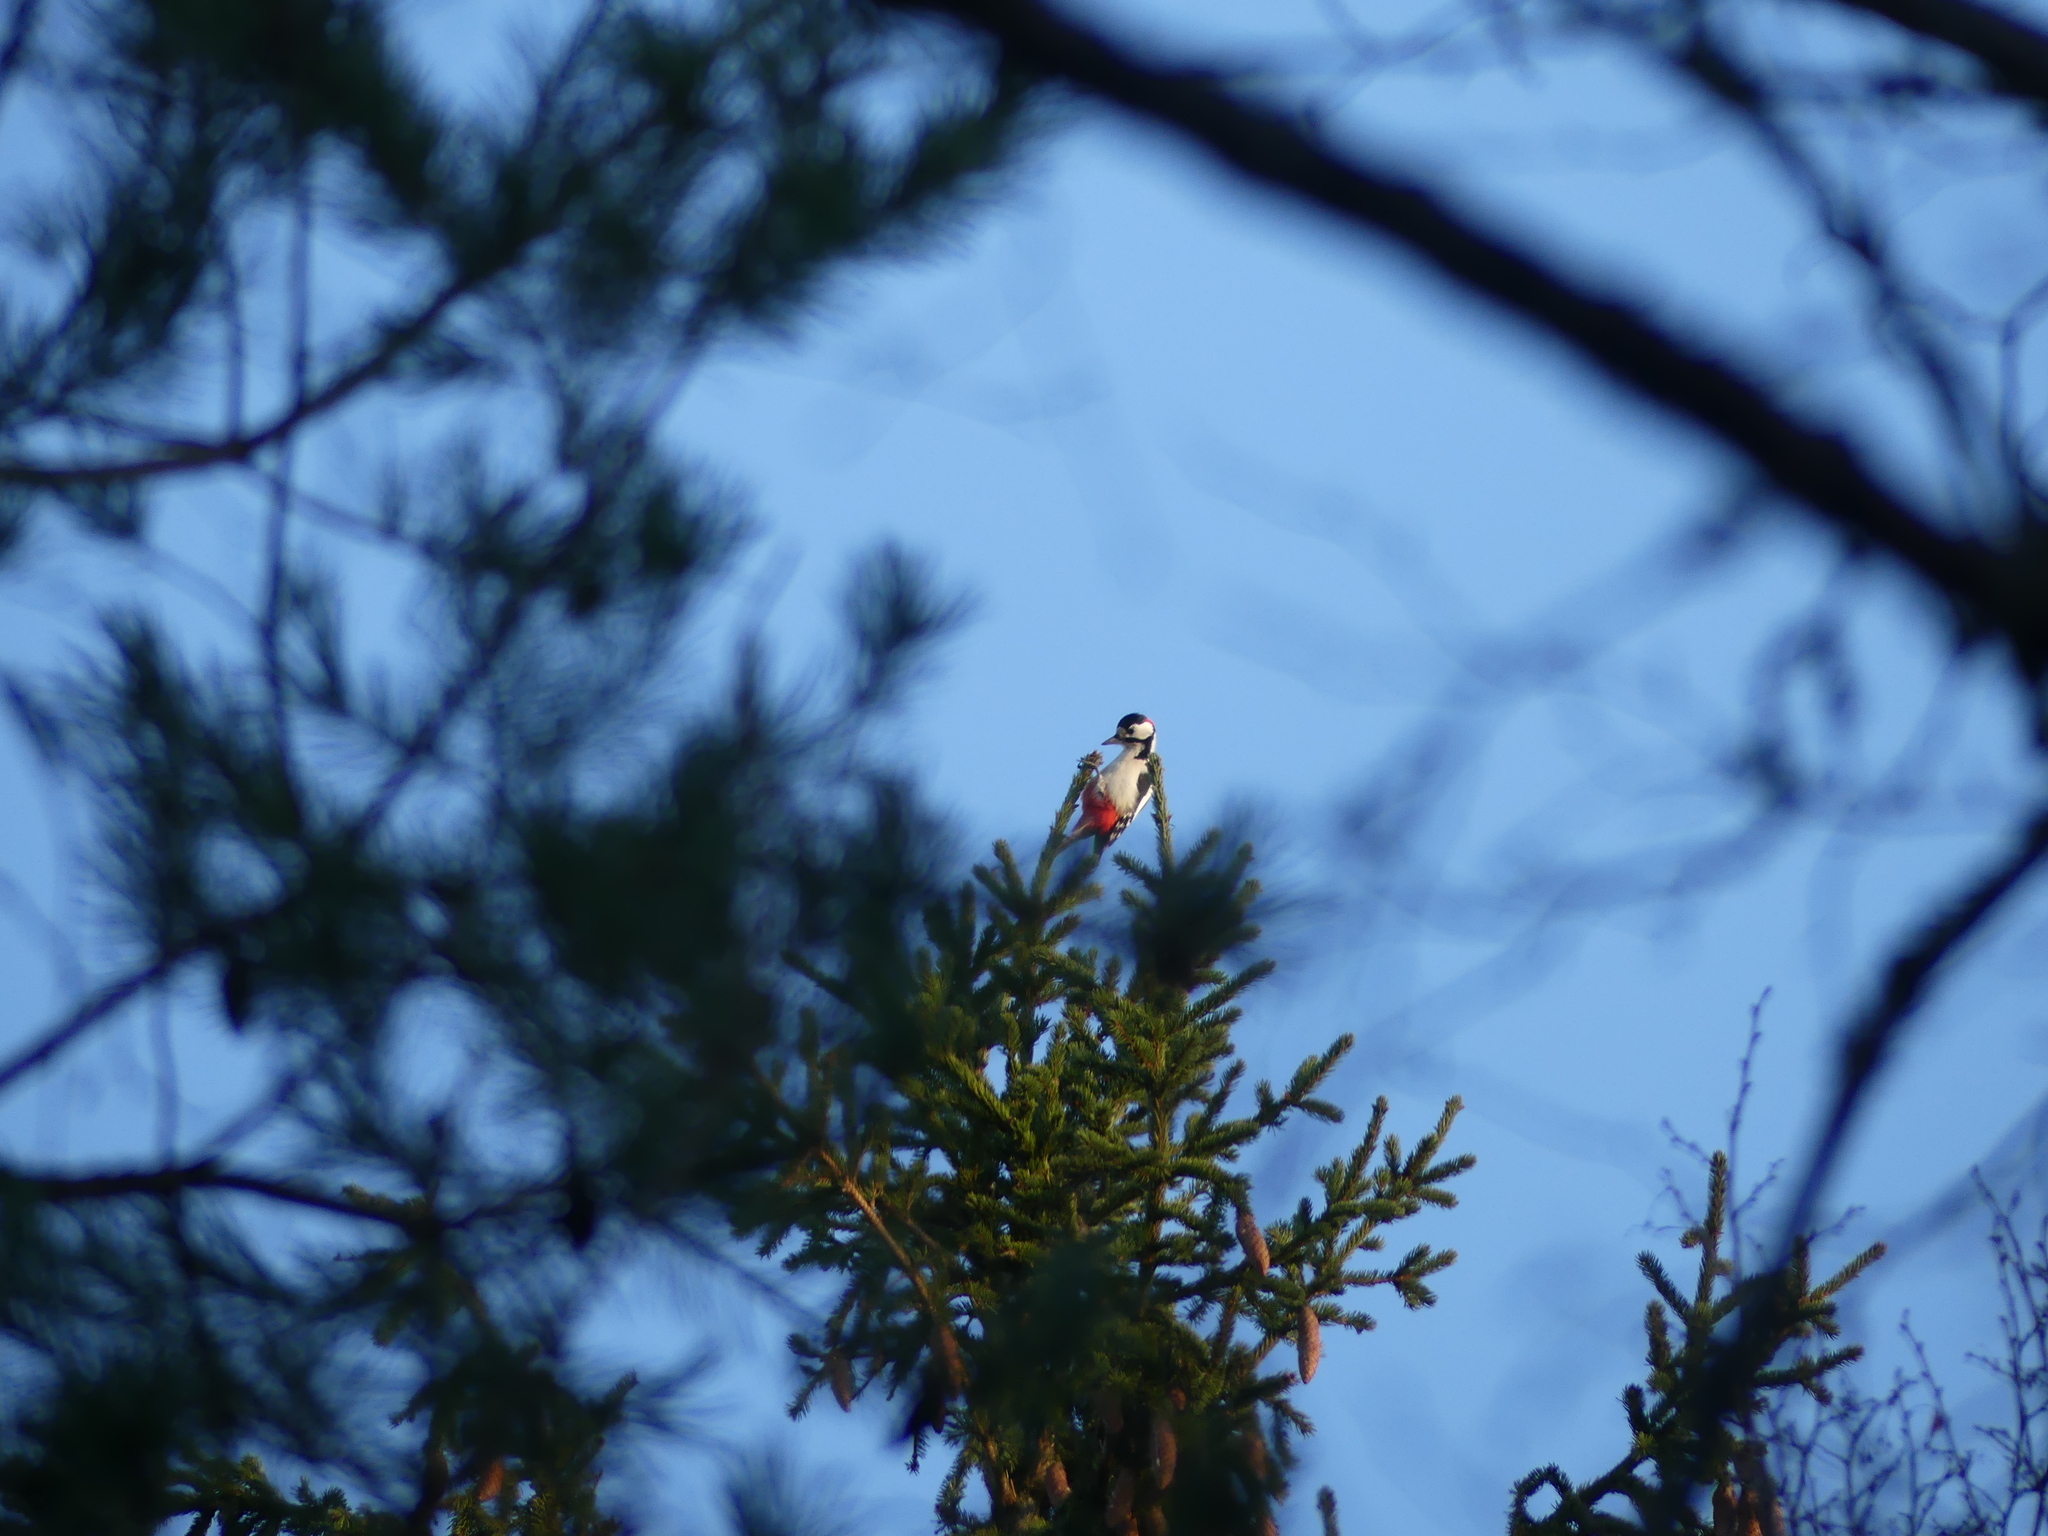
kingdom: Animalia
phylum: Chordata
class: Aves
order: Piciformes
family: Picidae
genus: Dendrocopos
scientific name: Dendrocopos major
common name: Great spotted woodpecker
